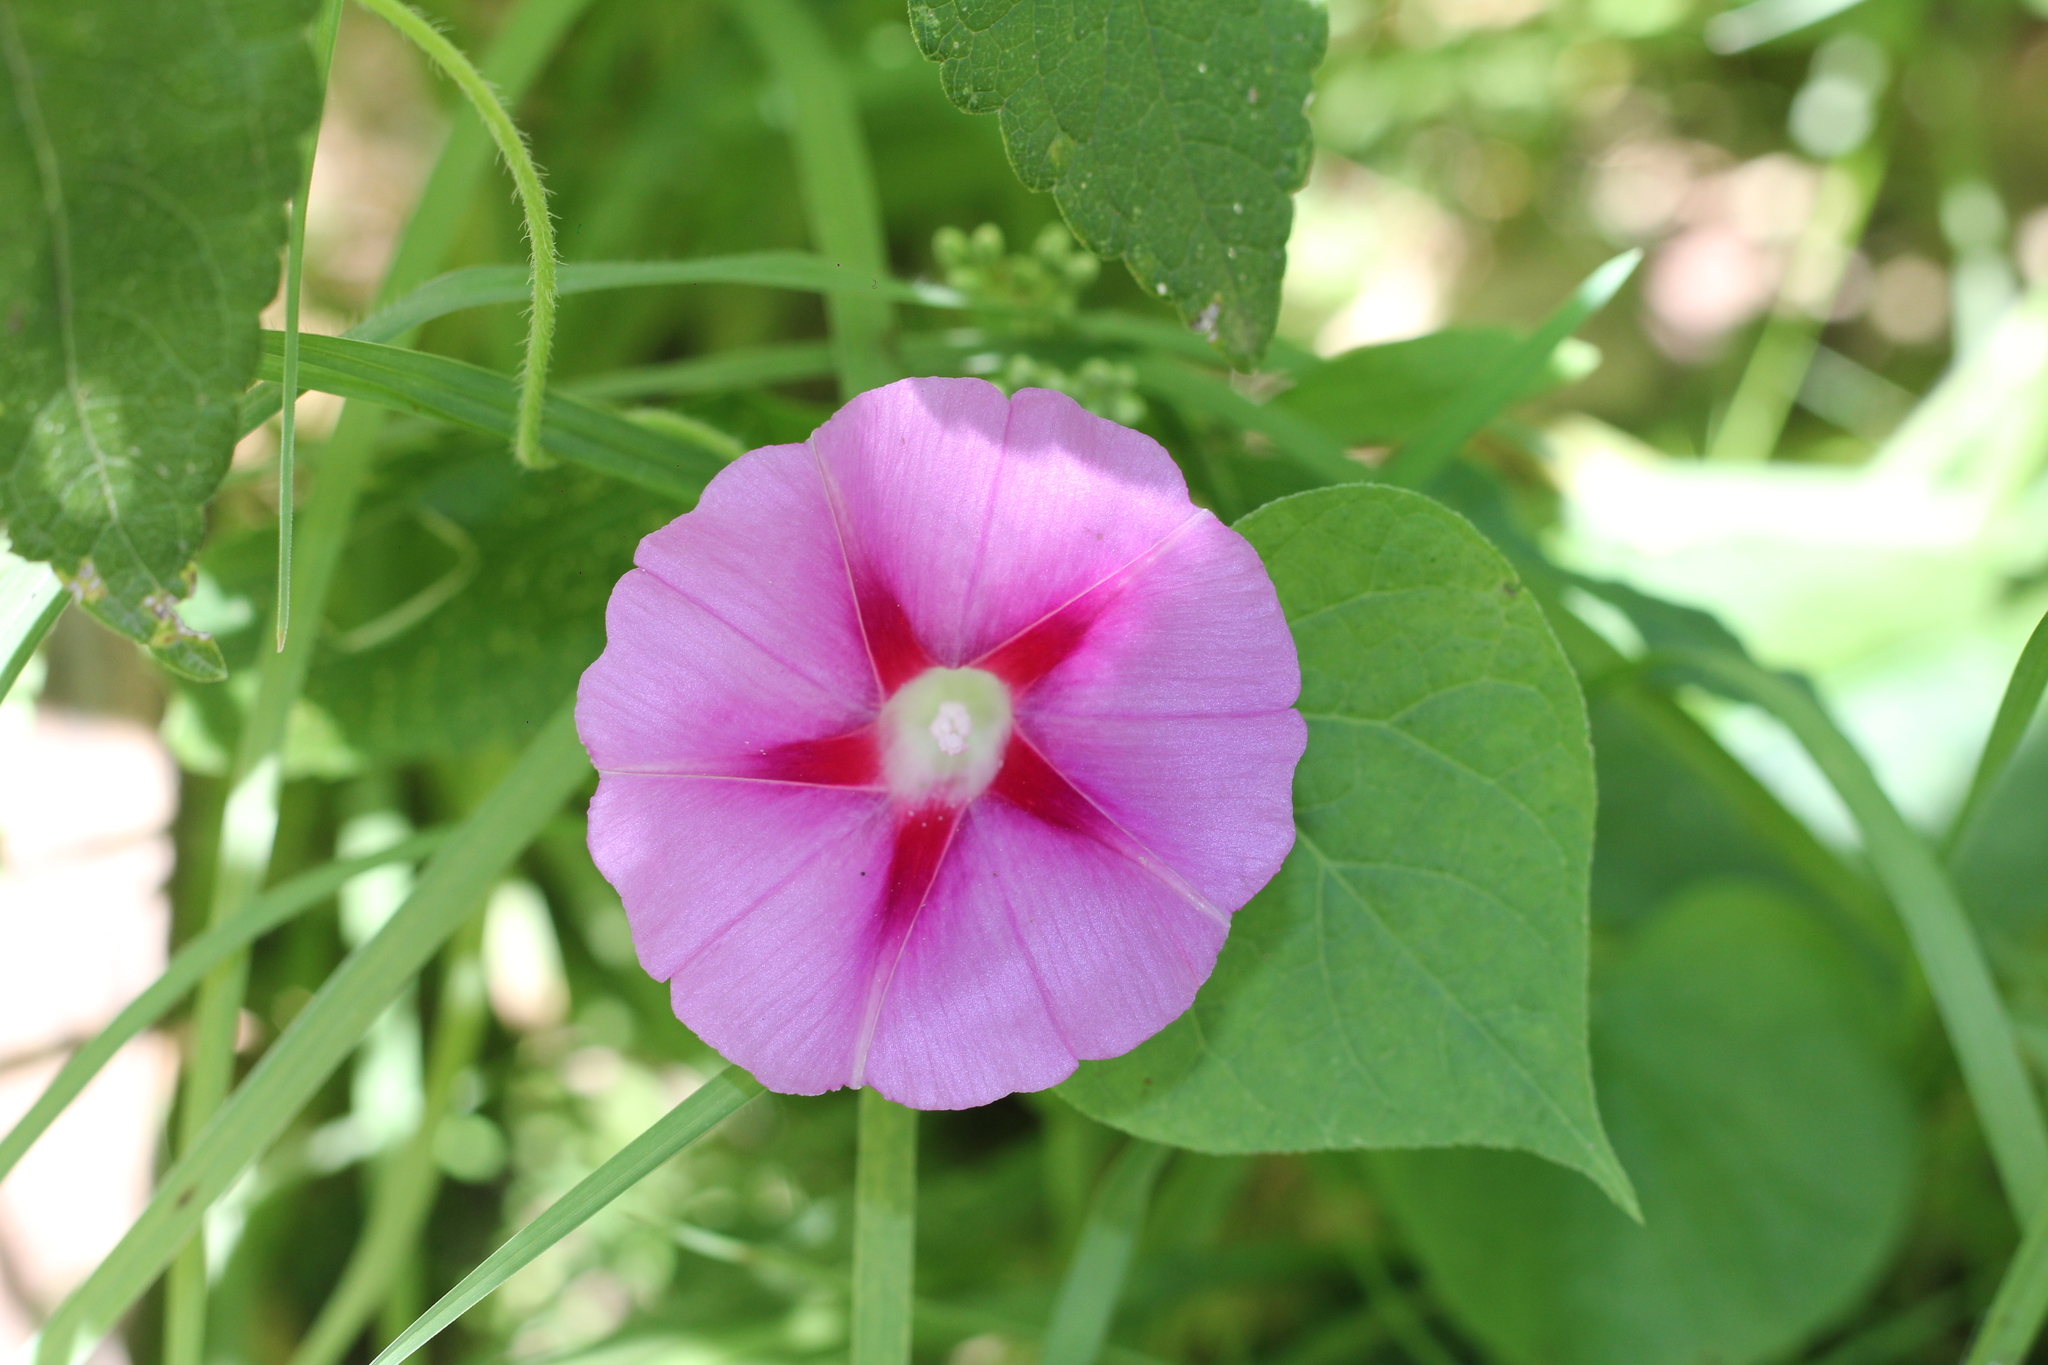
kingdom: Plantae
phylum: Tracheophyta
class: Magnoliopsida
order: Solanales
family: Convolvulaceae
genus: Ipomoea
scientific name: Ipomoea purpurea
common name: Common morning-glory
